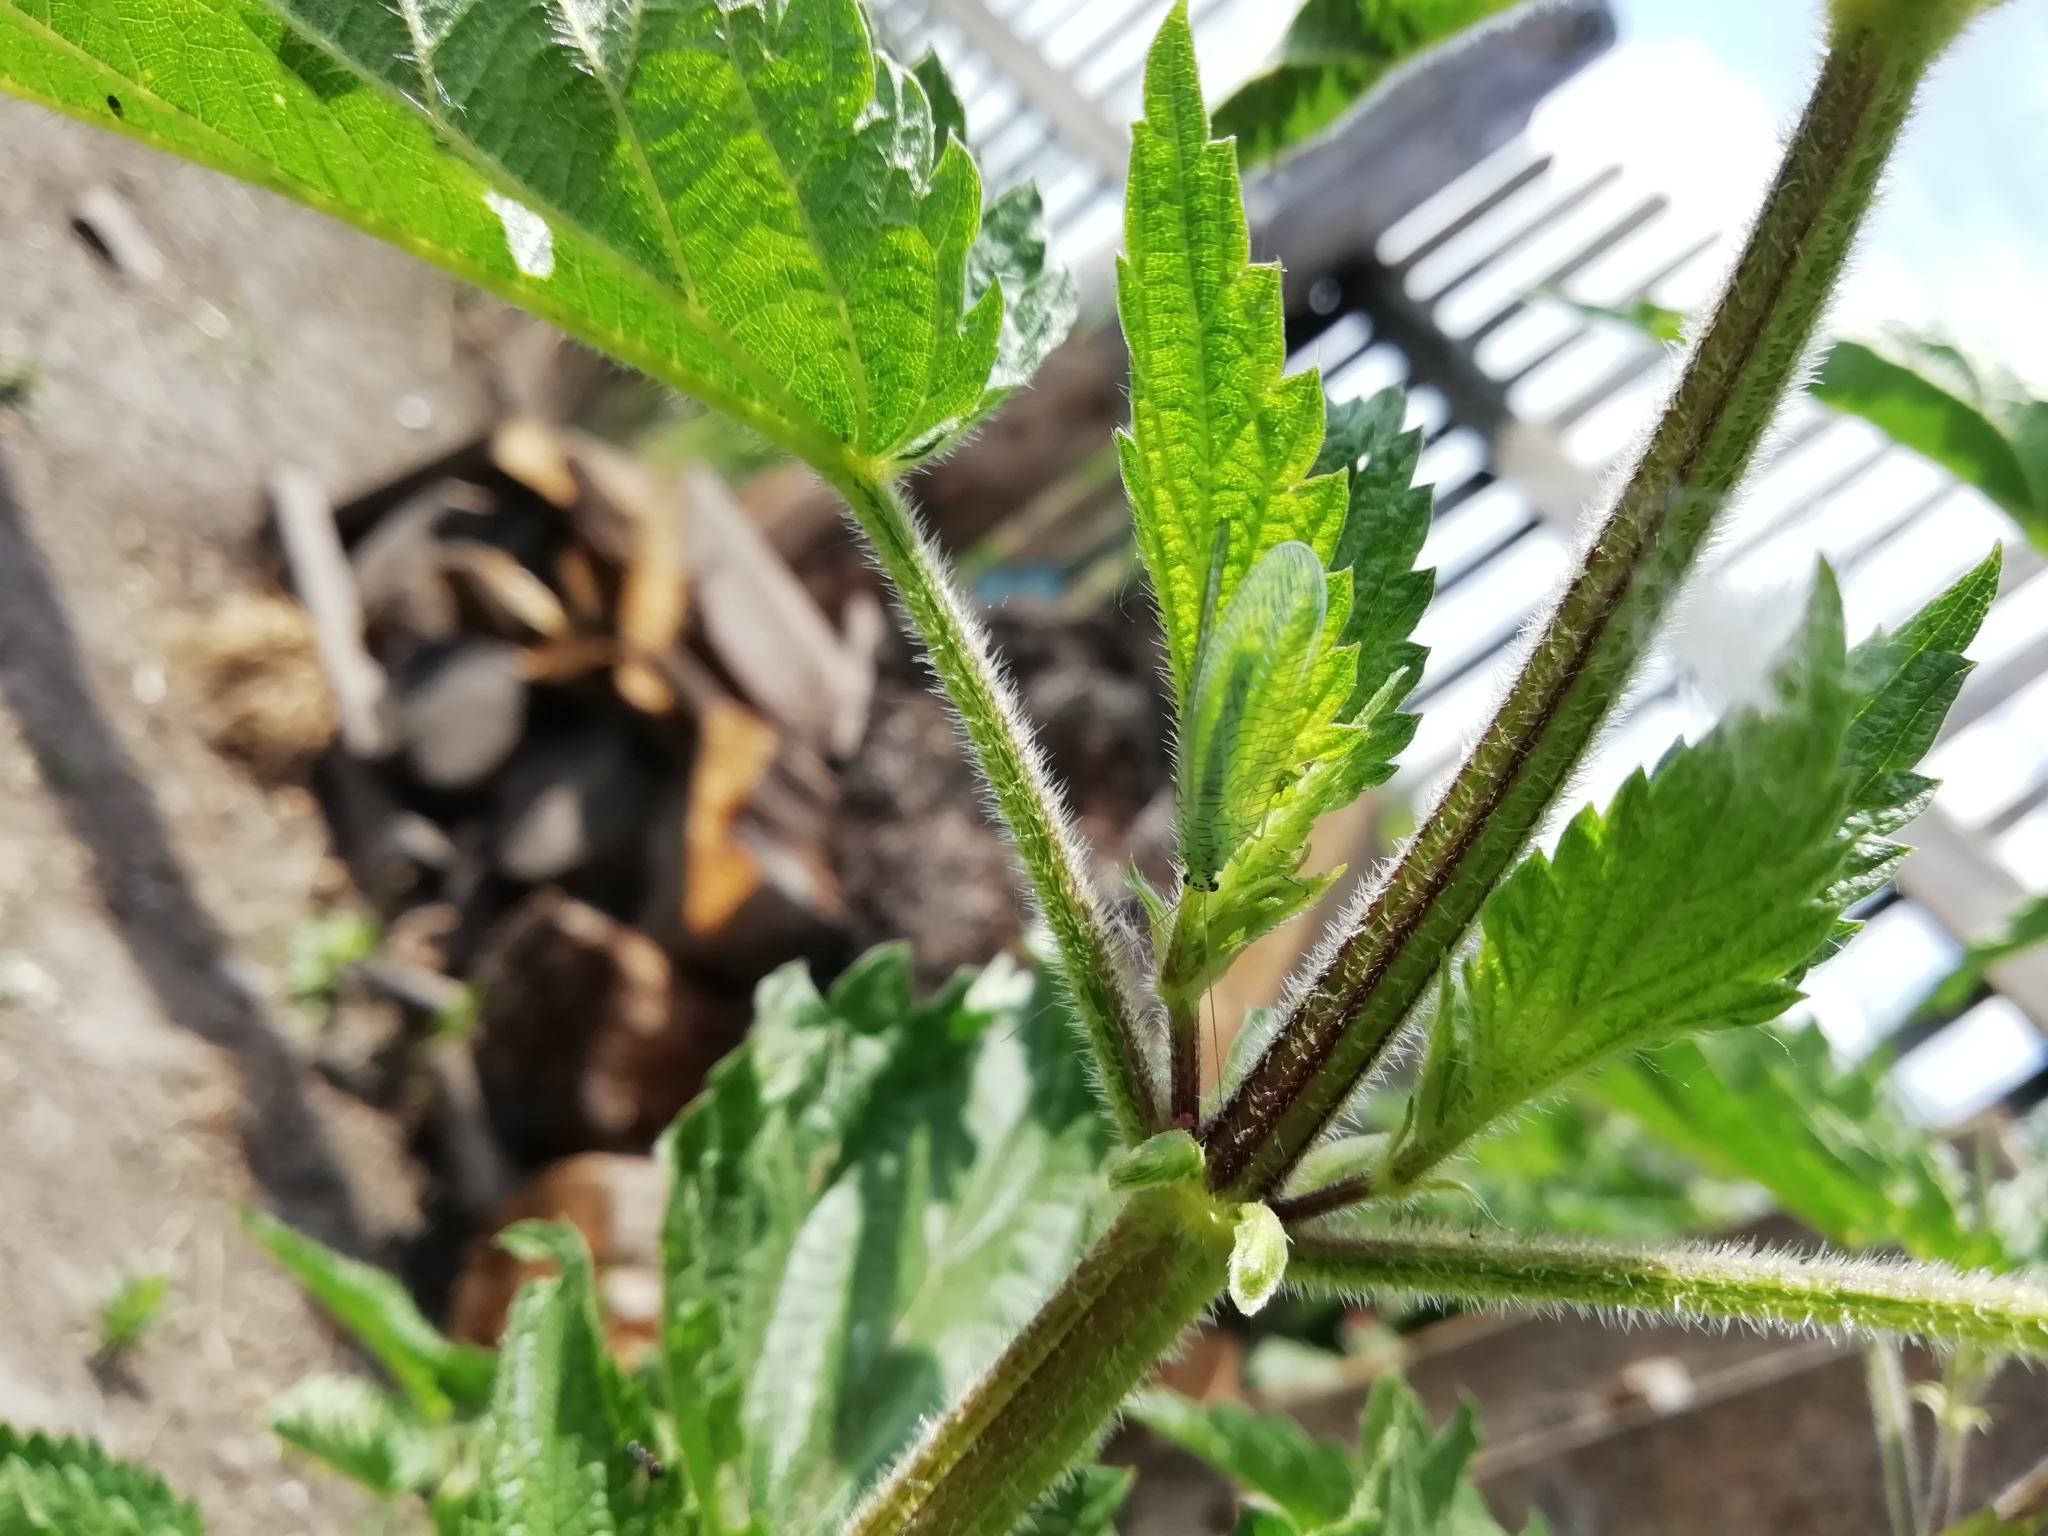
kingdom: Animalia
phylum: Arthropoda
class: Insecta
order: Neuroptera
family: Chrysopidae
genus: Chrysopa
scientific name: Chrysopa intima
